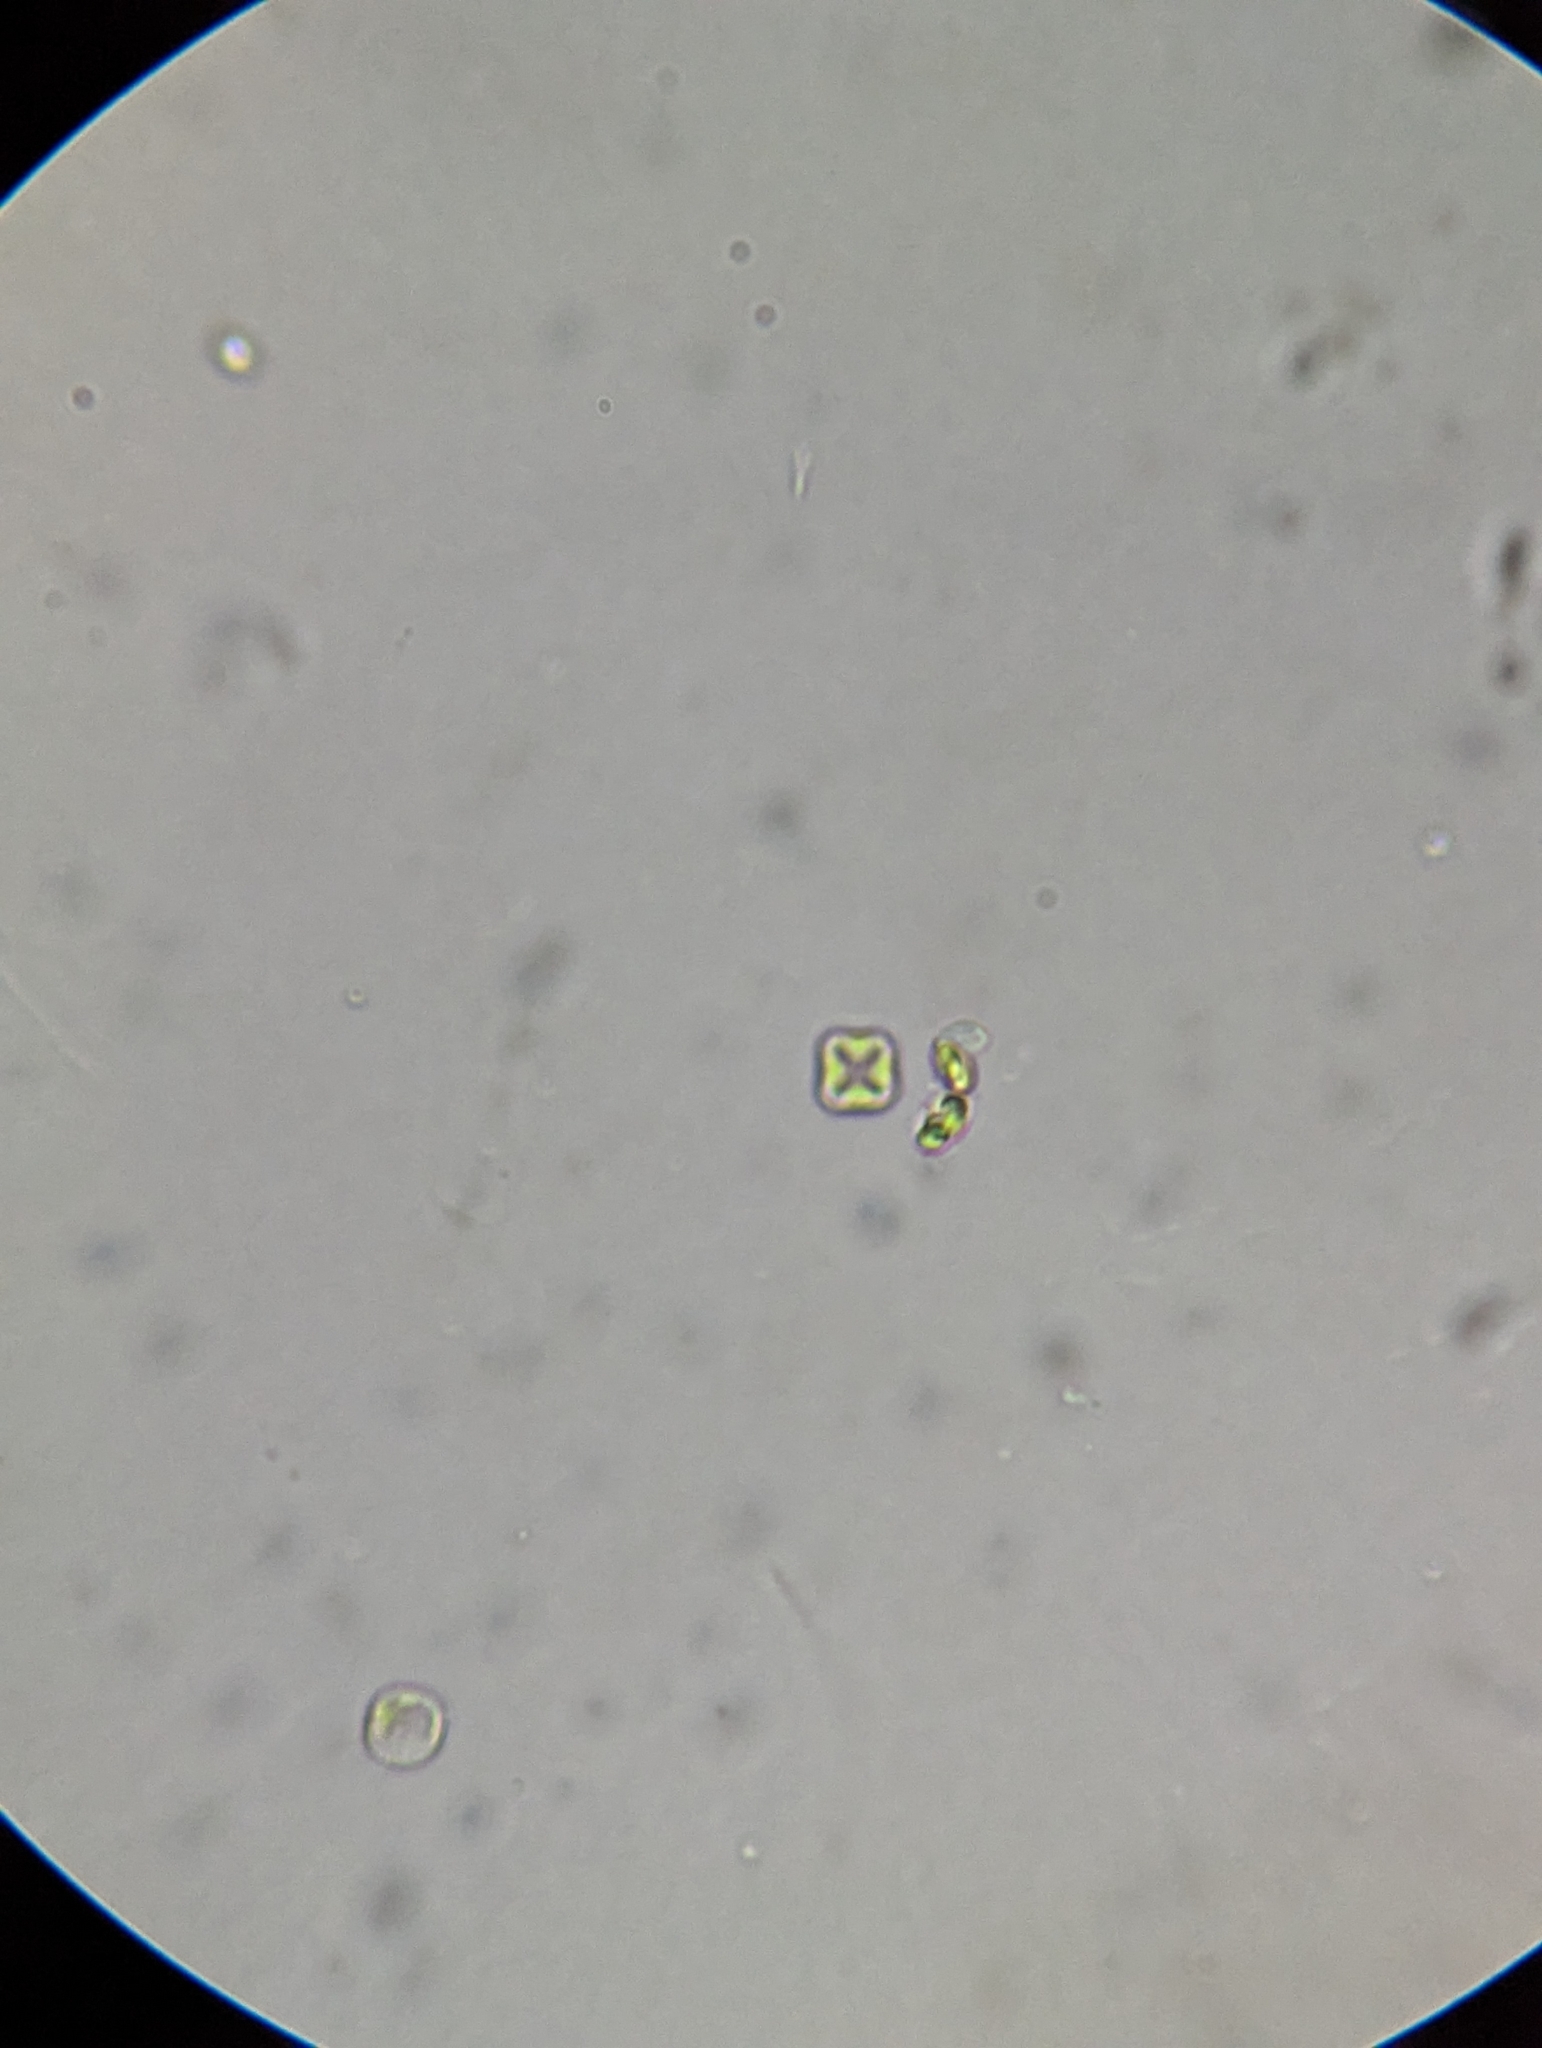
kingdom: Plantae
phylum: Chlorophyta
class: Trebouxiophyceae
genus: Crucigenia
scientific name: Crucigenia tetrapedia
